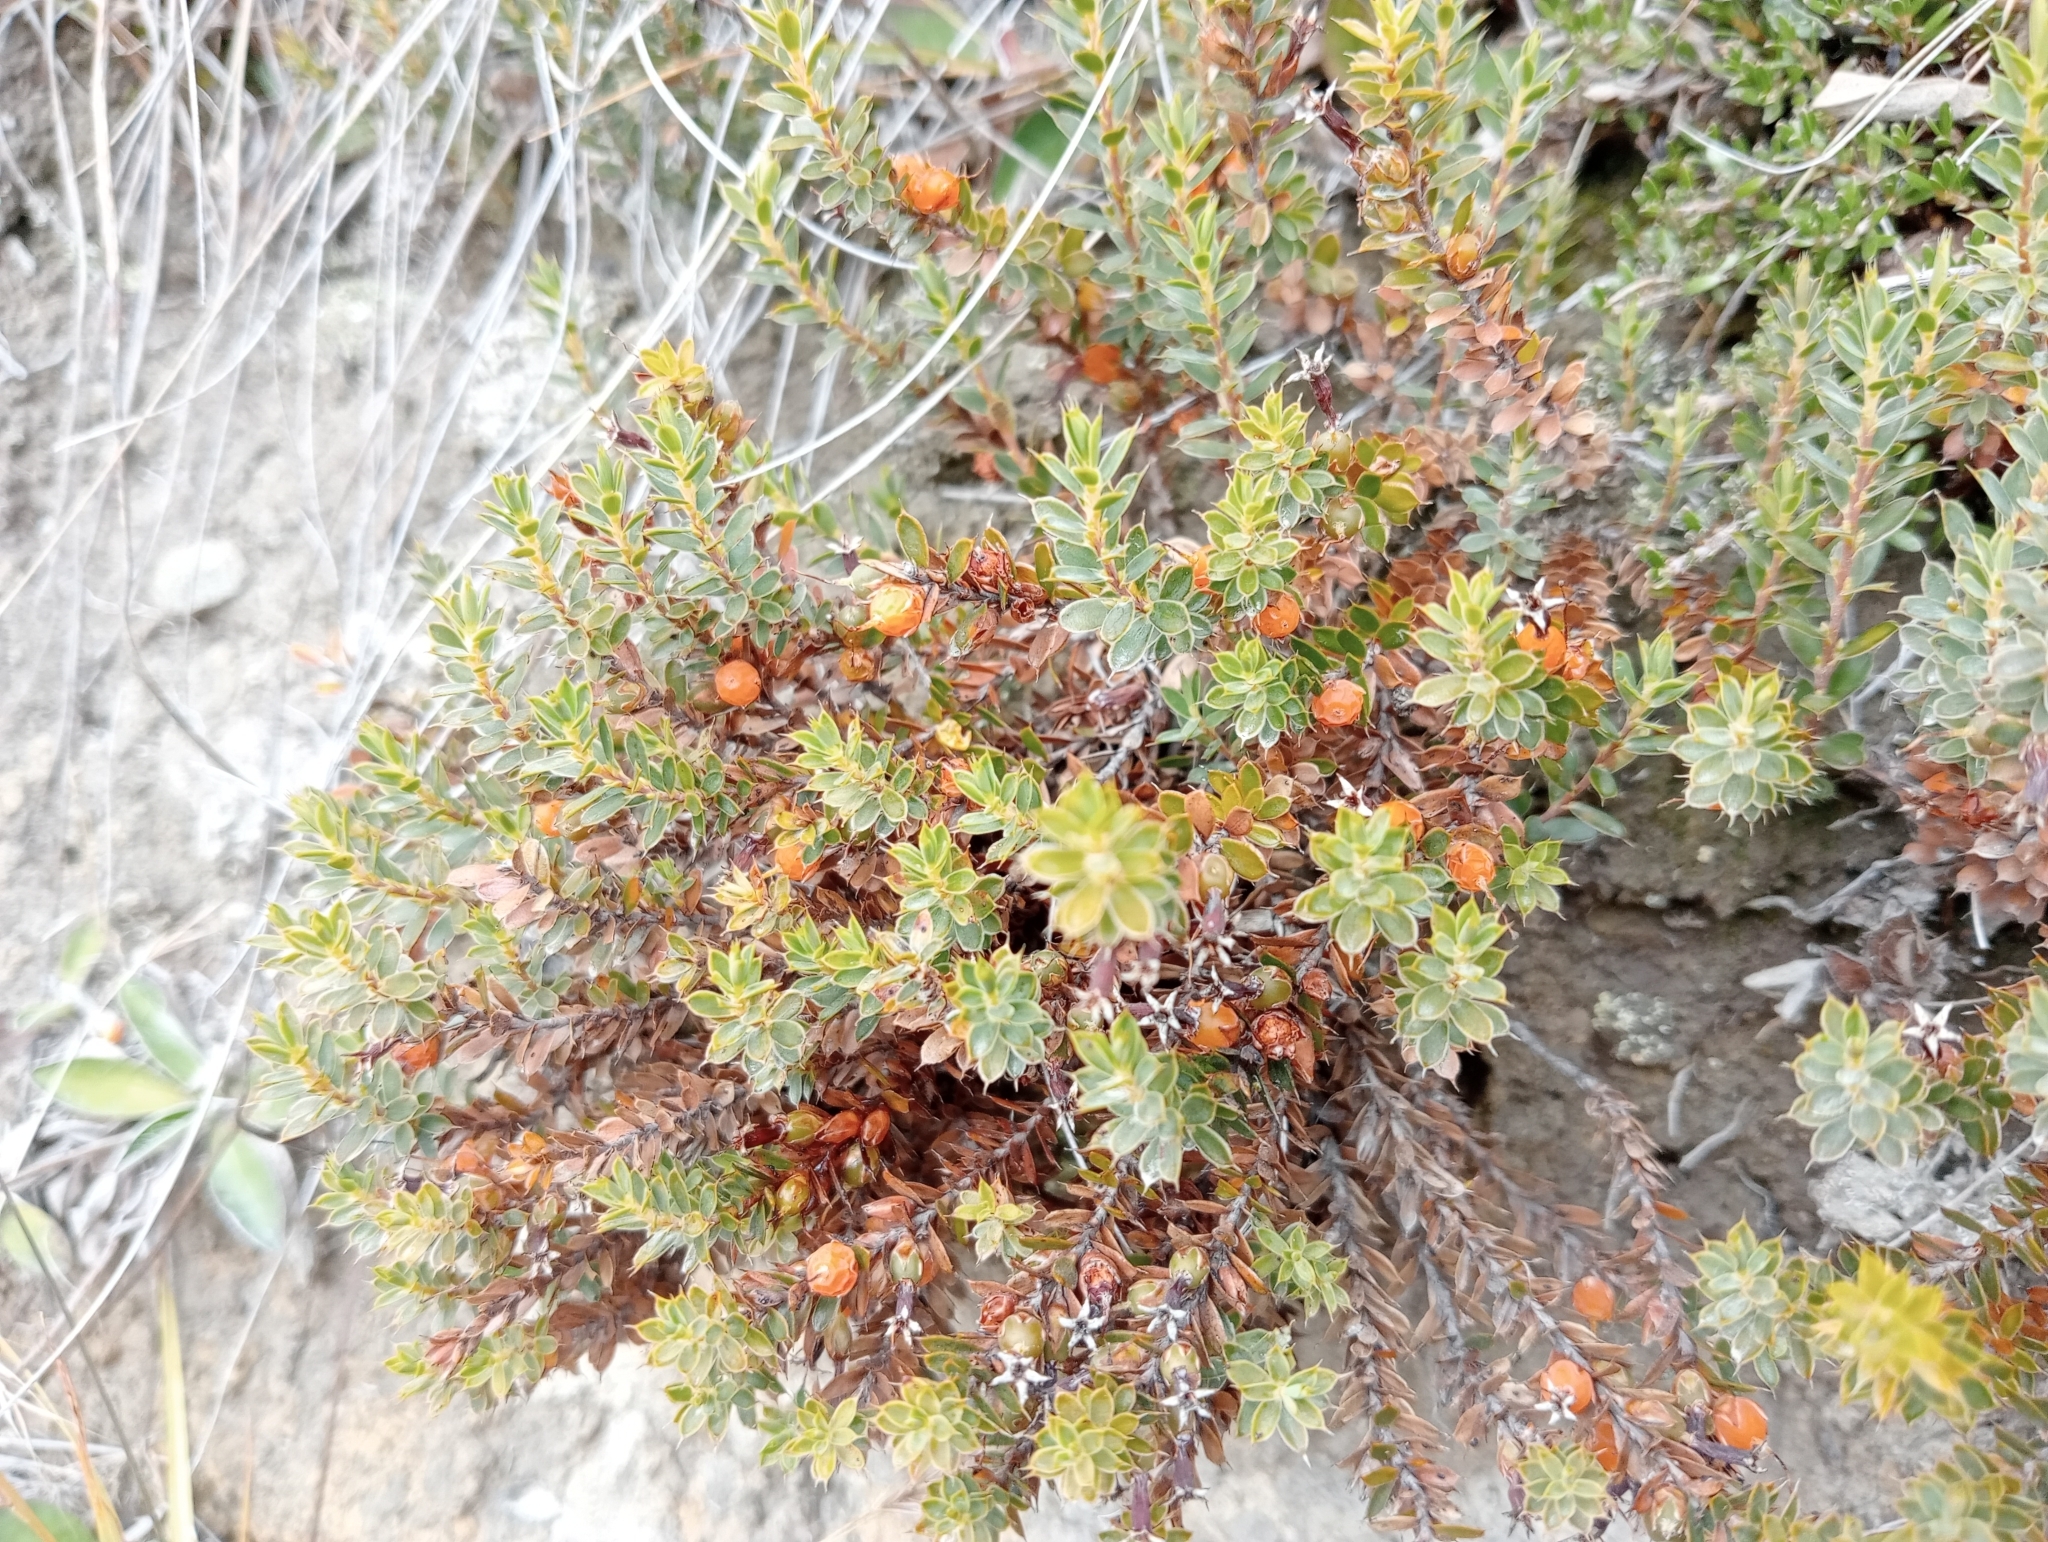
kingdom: Plantae
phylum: Tracheophyta
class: Magnoliopsida
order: Ericales
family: Ericaceae
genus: Styphelia
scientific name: Styphelia nesophila
